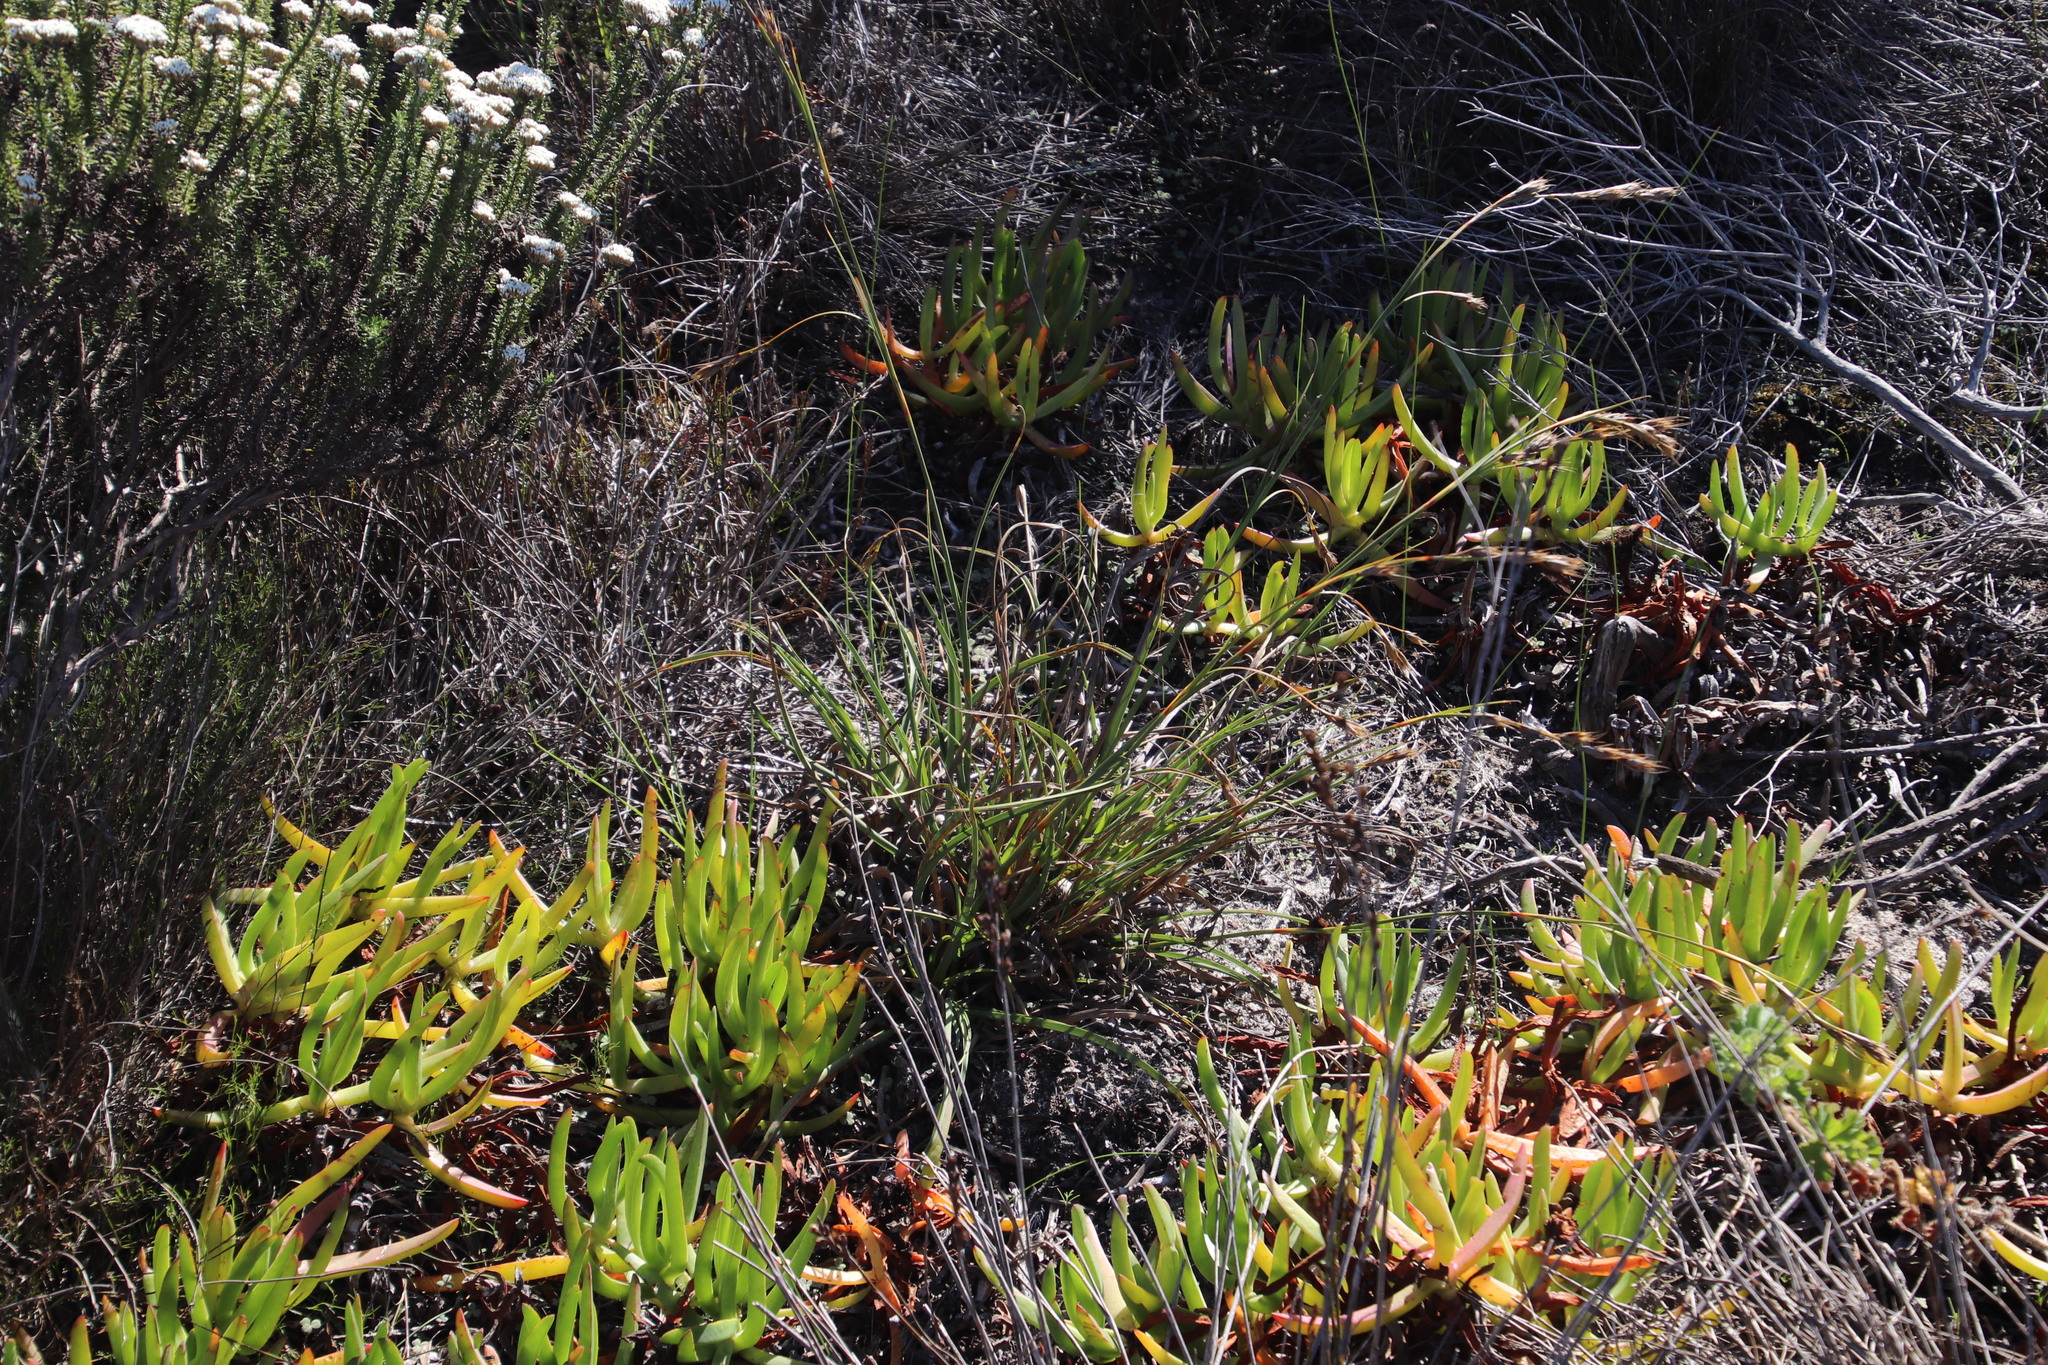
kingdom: Plantae
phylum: Tracheophyta
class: Liliopsida
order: Poales
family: Cyperaceae
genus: Tetraria
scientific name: Tetraria eximia
